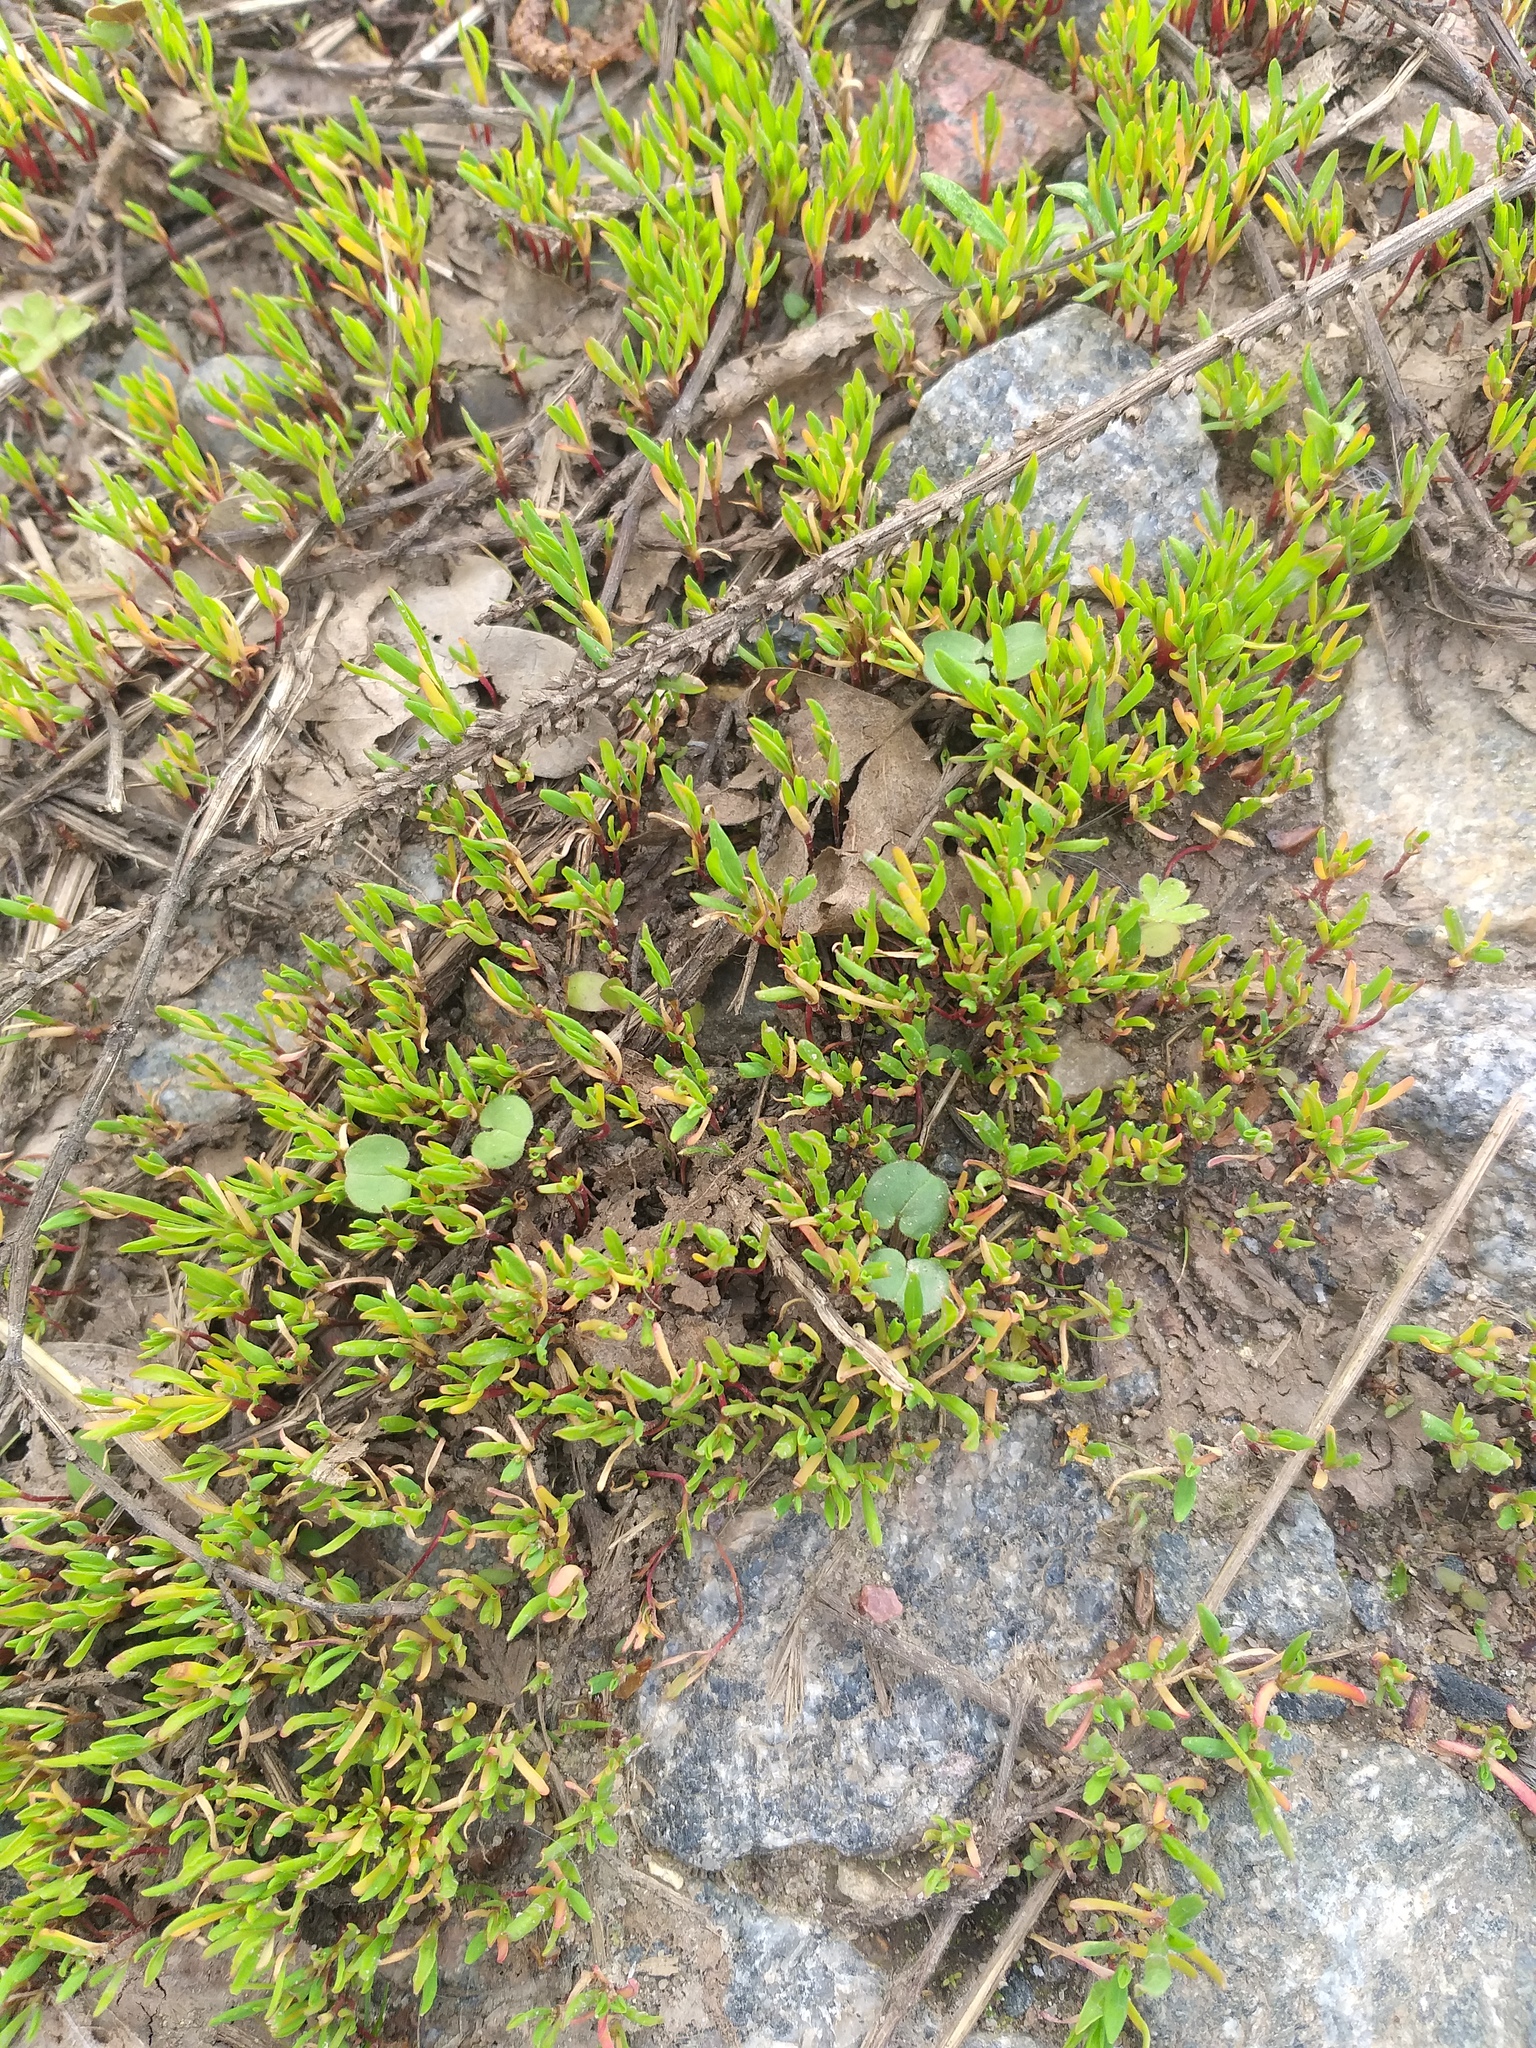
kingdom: Plantae
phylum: Tracheophyta
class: Magnoliopsida
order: Caryophyllales
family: Polygonaceae
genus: Polygonum
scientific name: Polygonum
